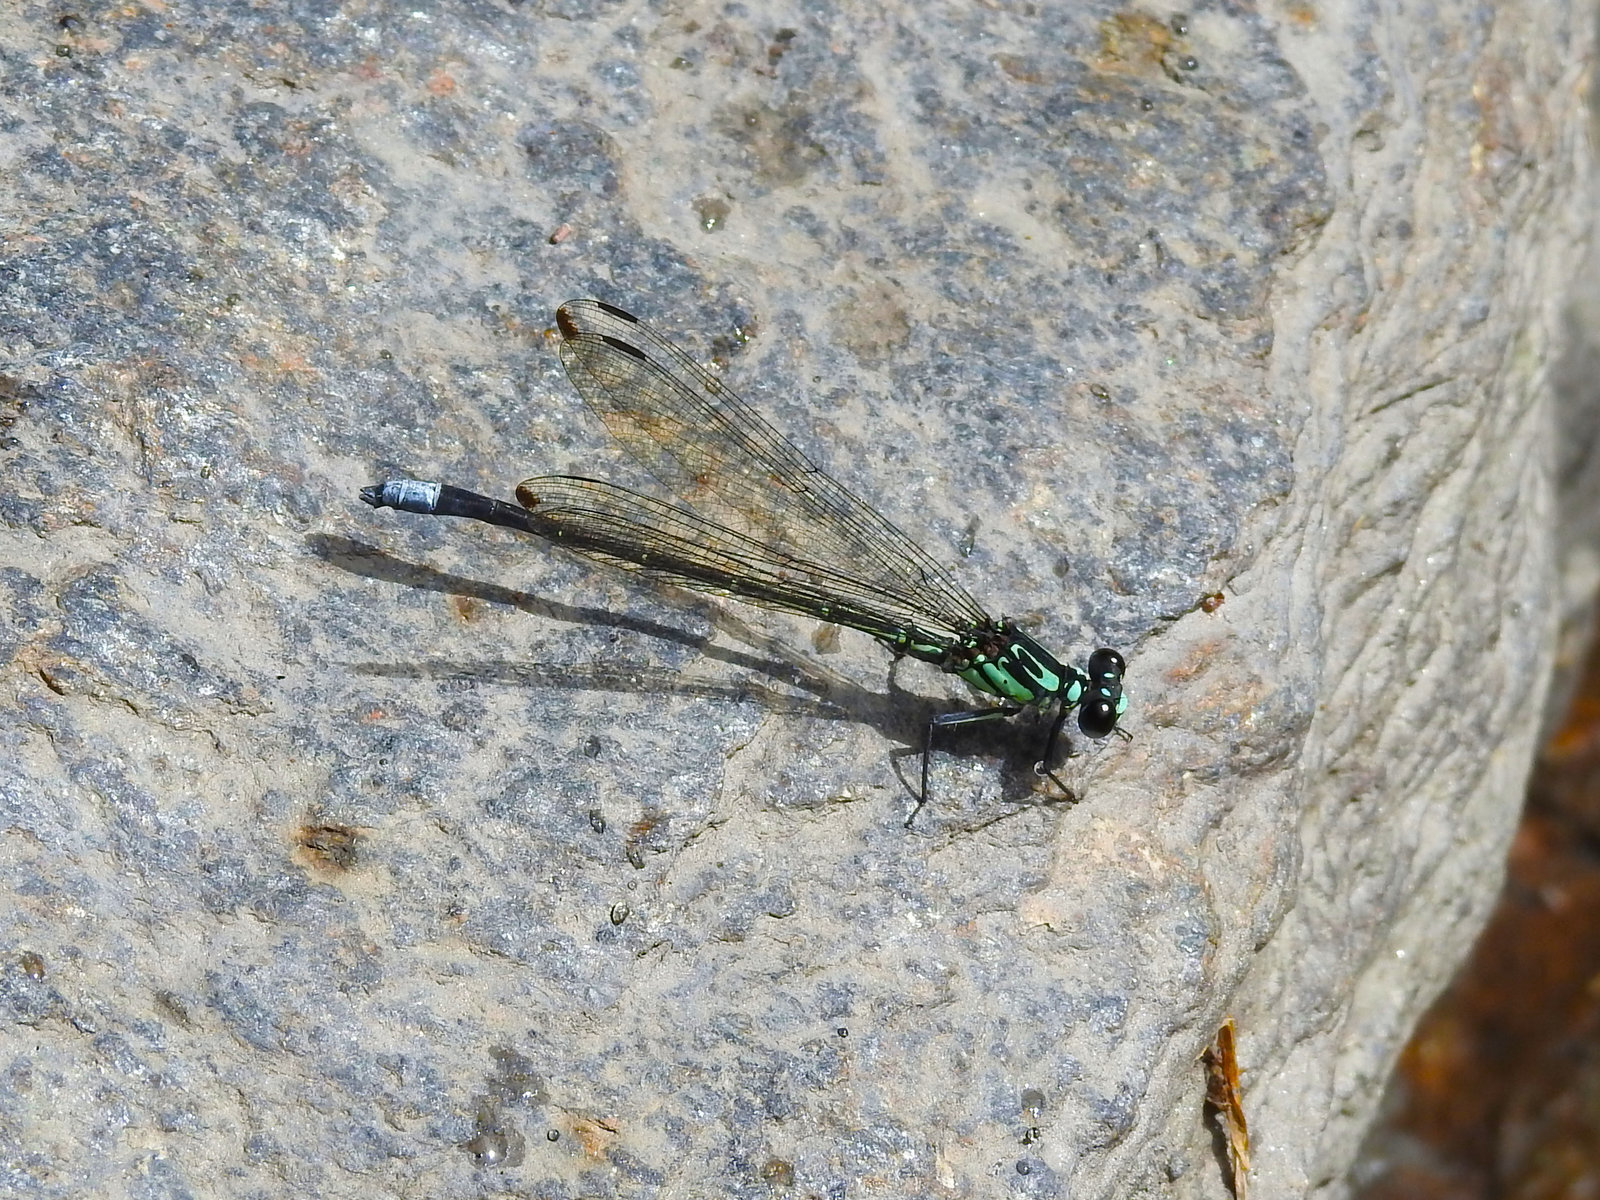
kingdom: Animalia
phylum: Arthropoda
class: Insecta
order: Odonata
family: Euphaeidae
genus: Anisopleura
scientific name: Anisopleura comes
